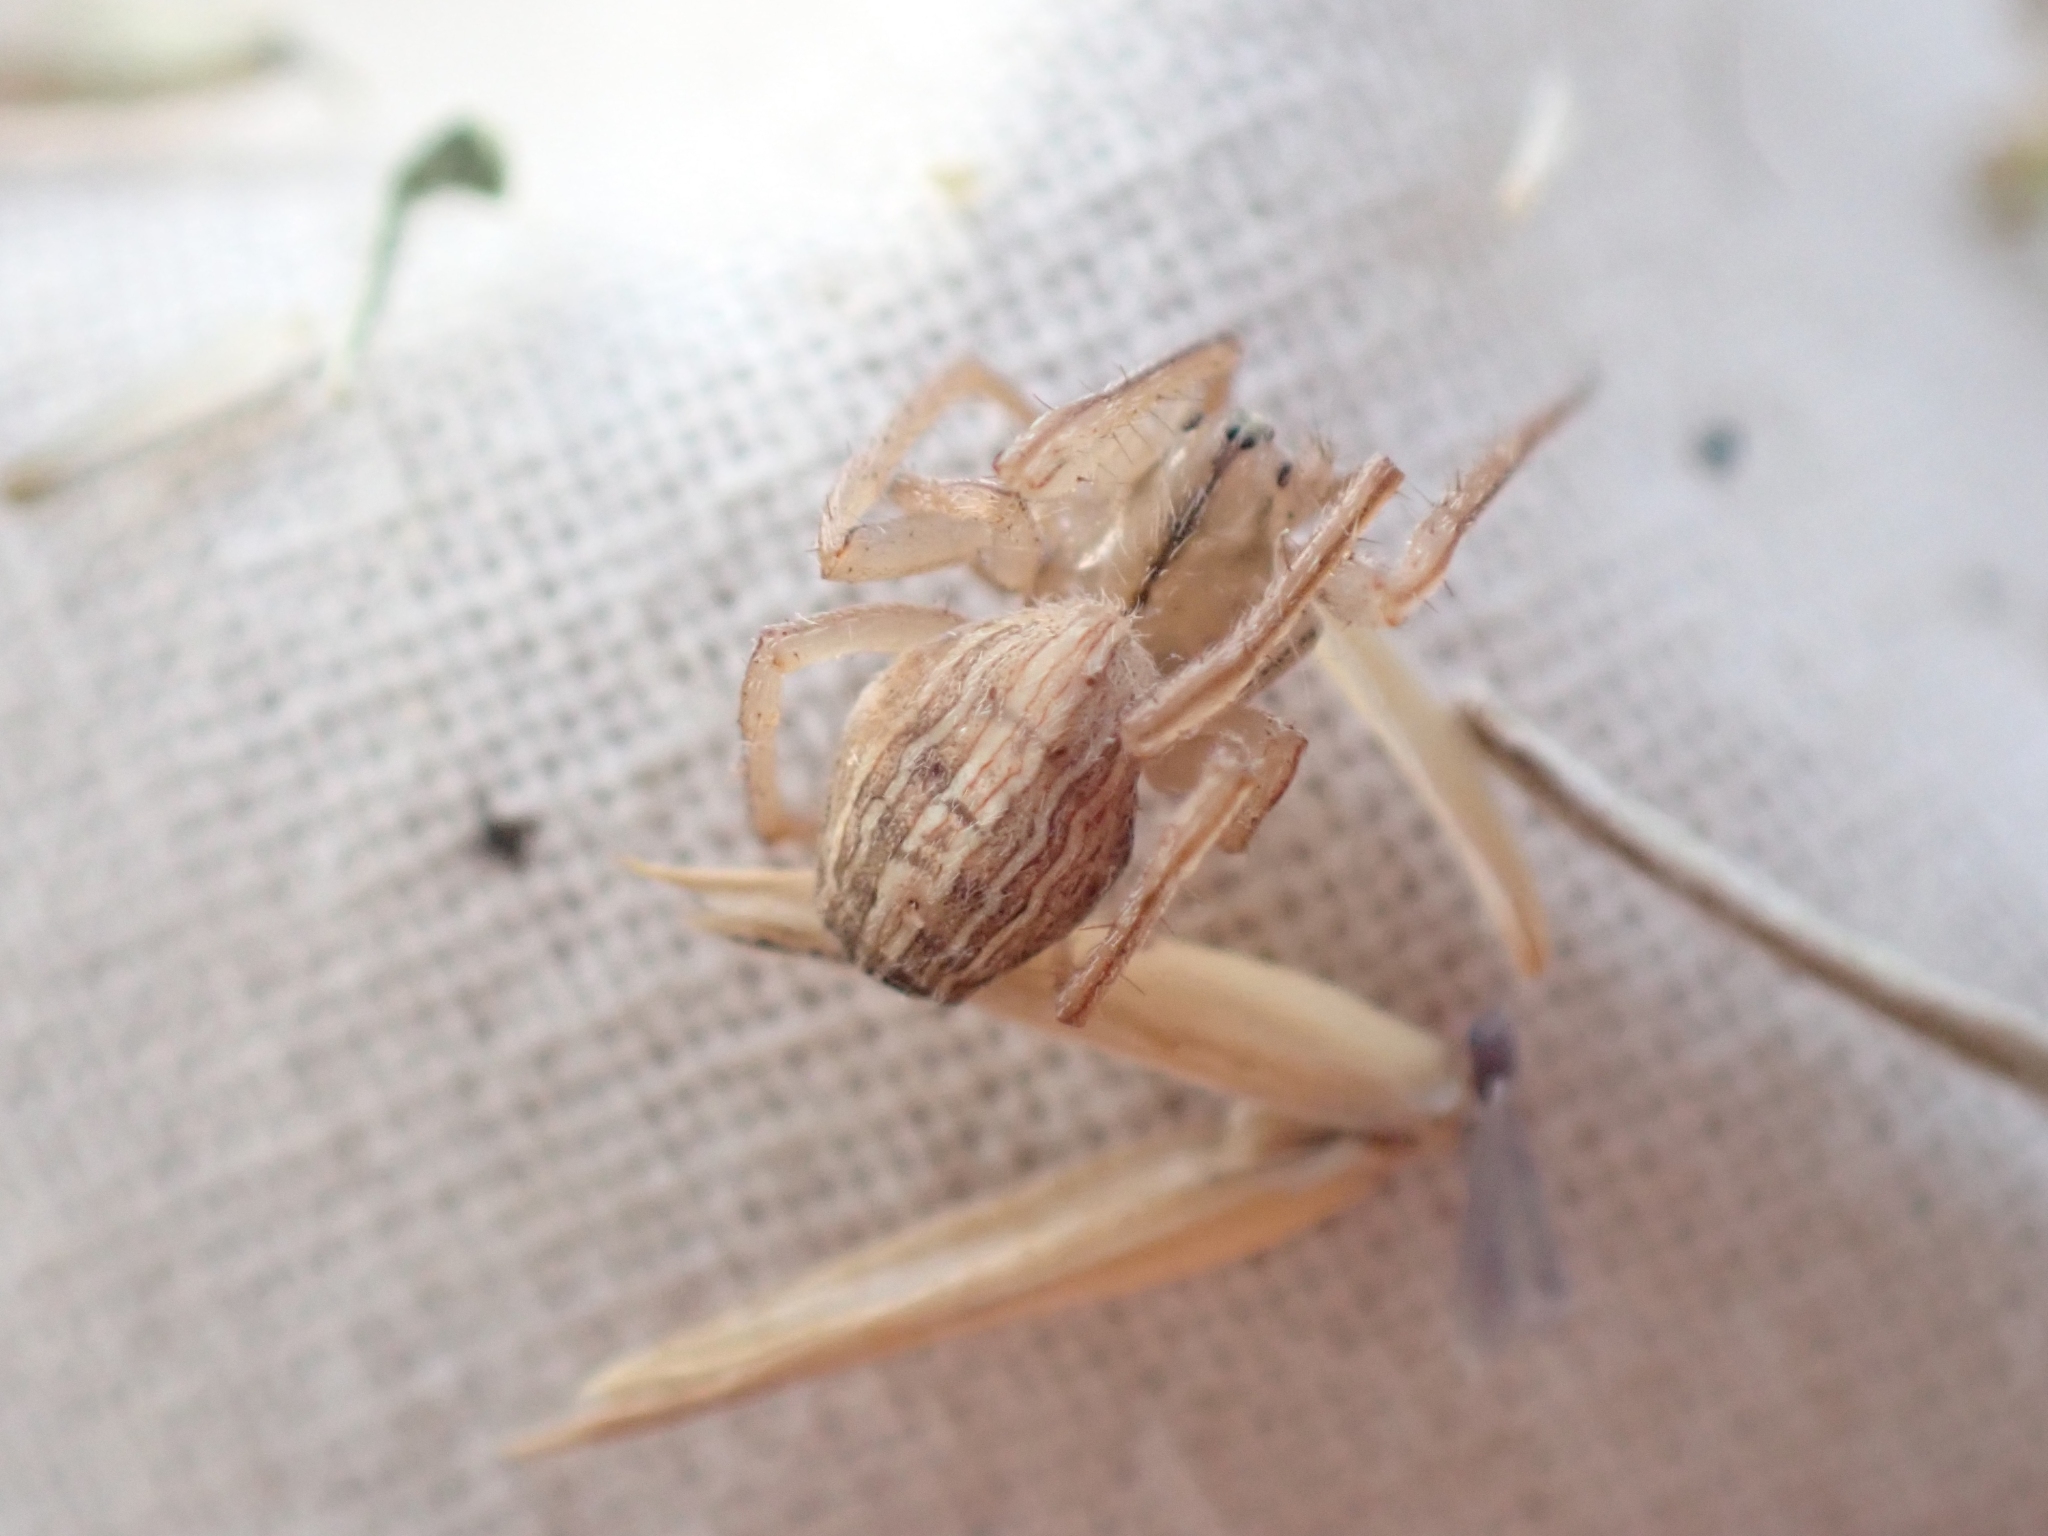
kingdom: Animalia
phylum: Arthropoda
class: Arachnida
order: Araneae
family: Araneidae
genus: Larinia
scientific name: Larinia borealis
